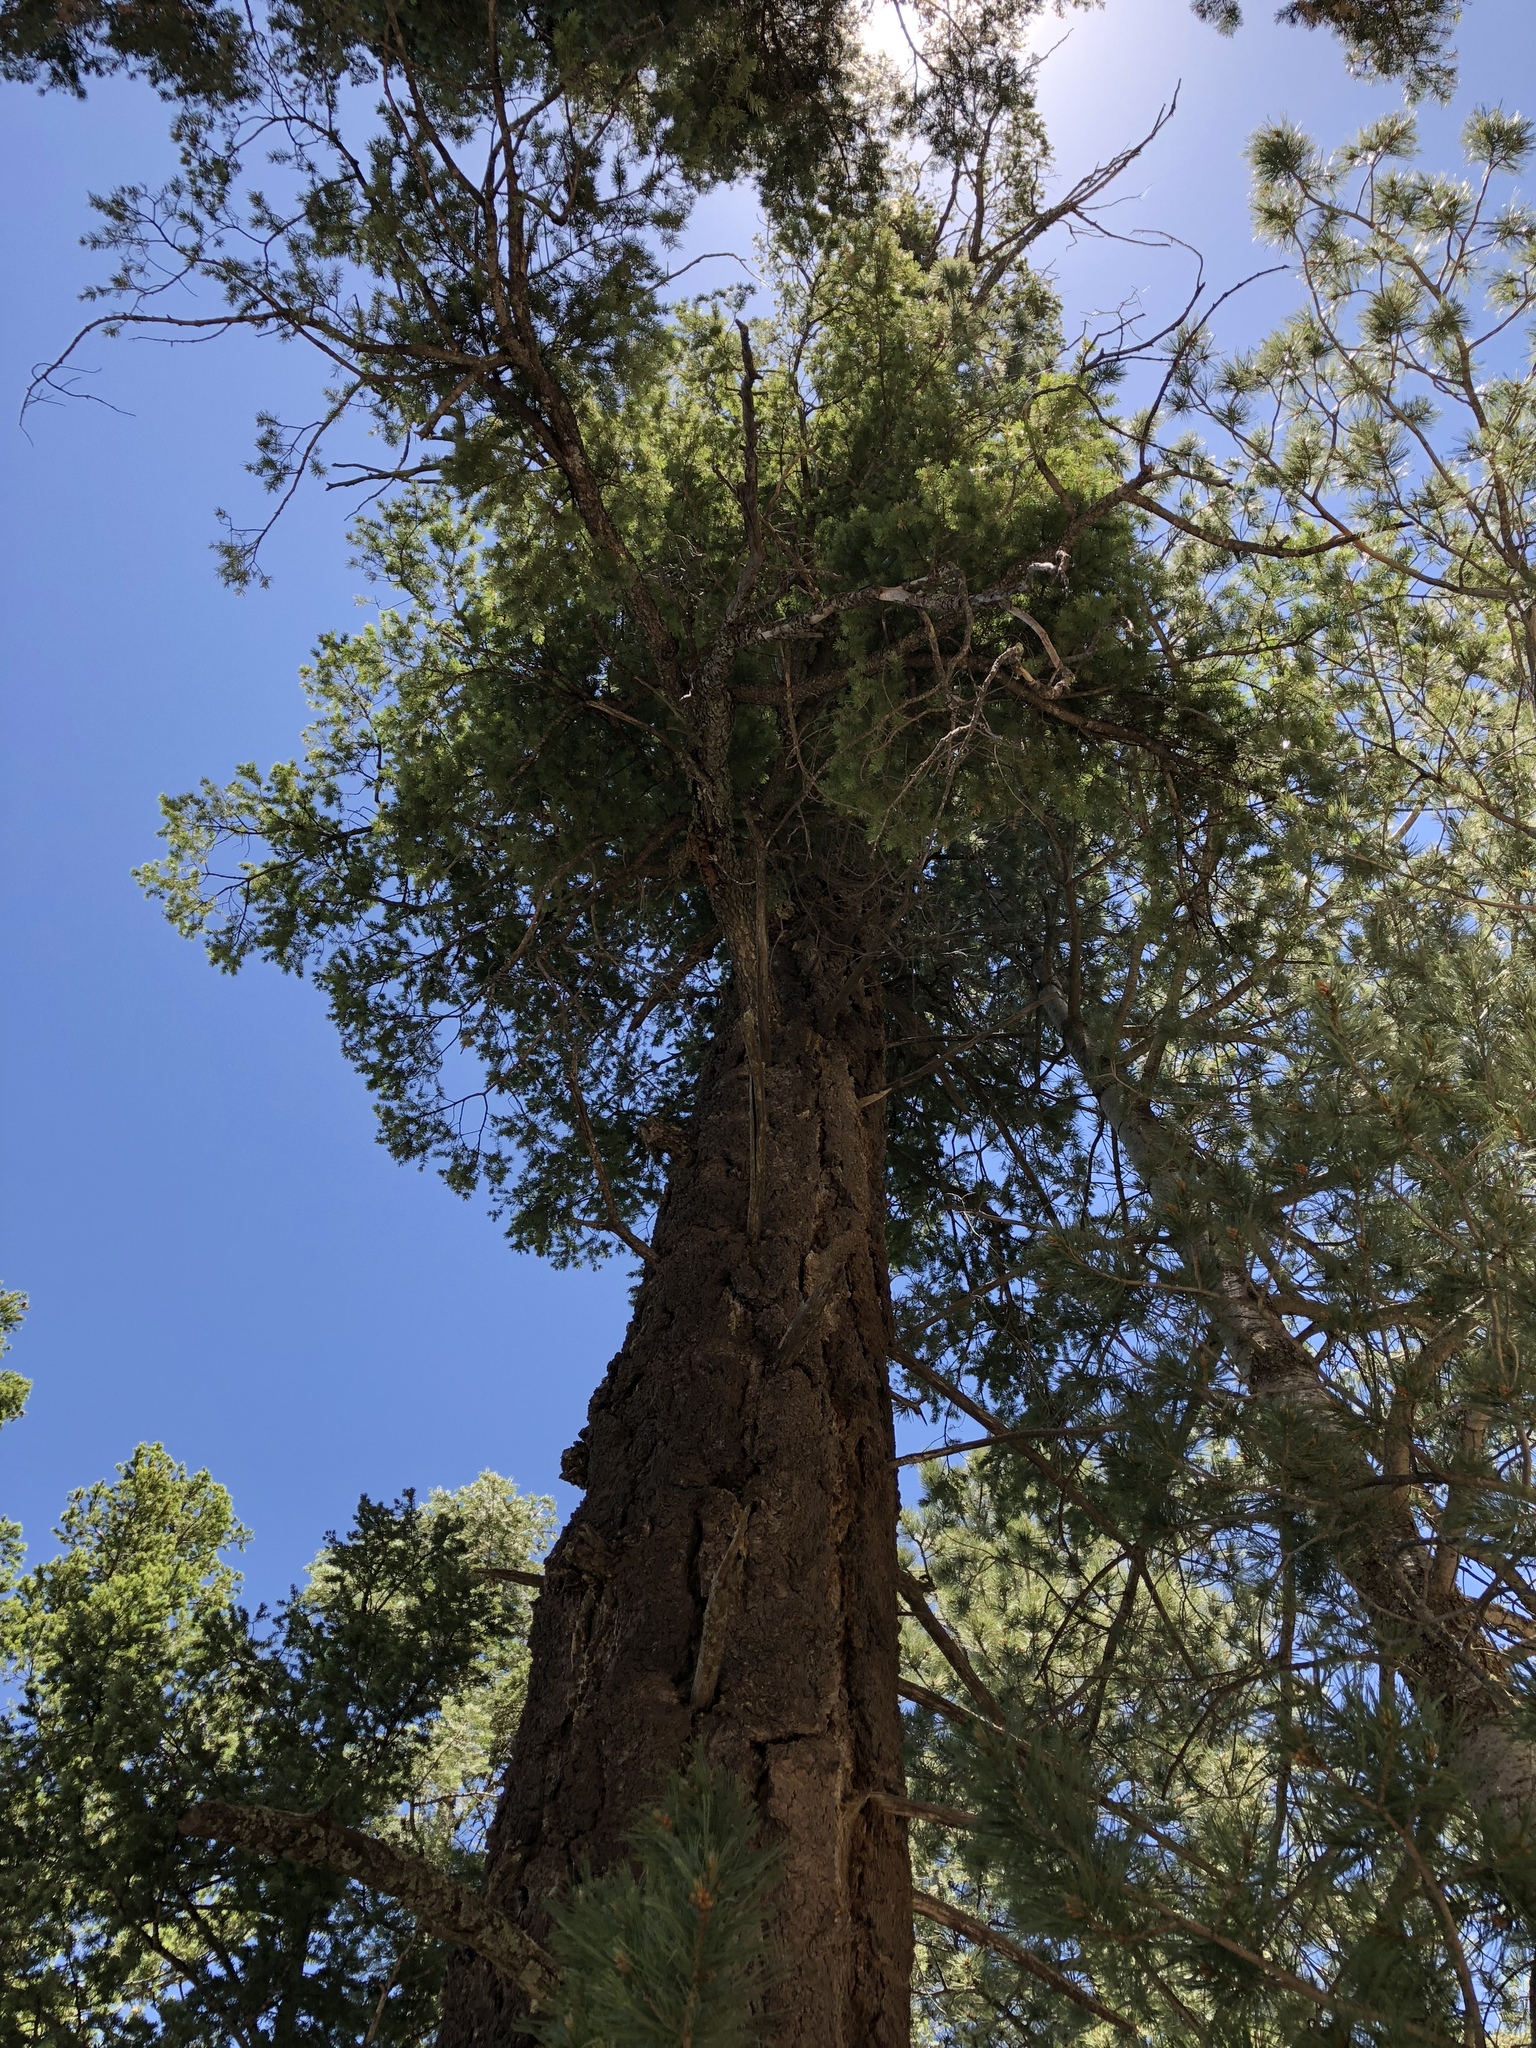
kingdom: Plantae
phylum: Tracheophyta
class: Pinopsida
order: Pinales
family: Pinaceae
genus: Pseudotsuga
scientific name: Pseudotsuga menziesii
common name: Douglas fir
